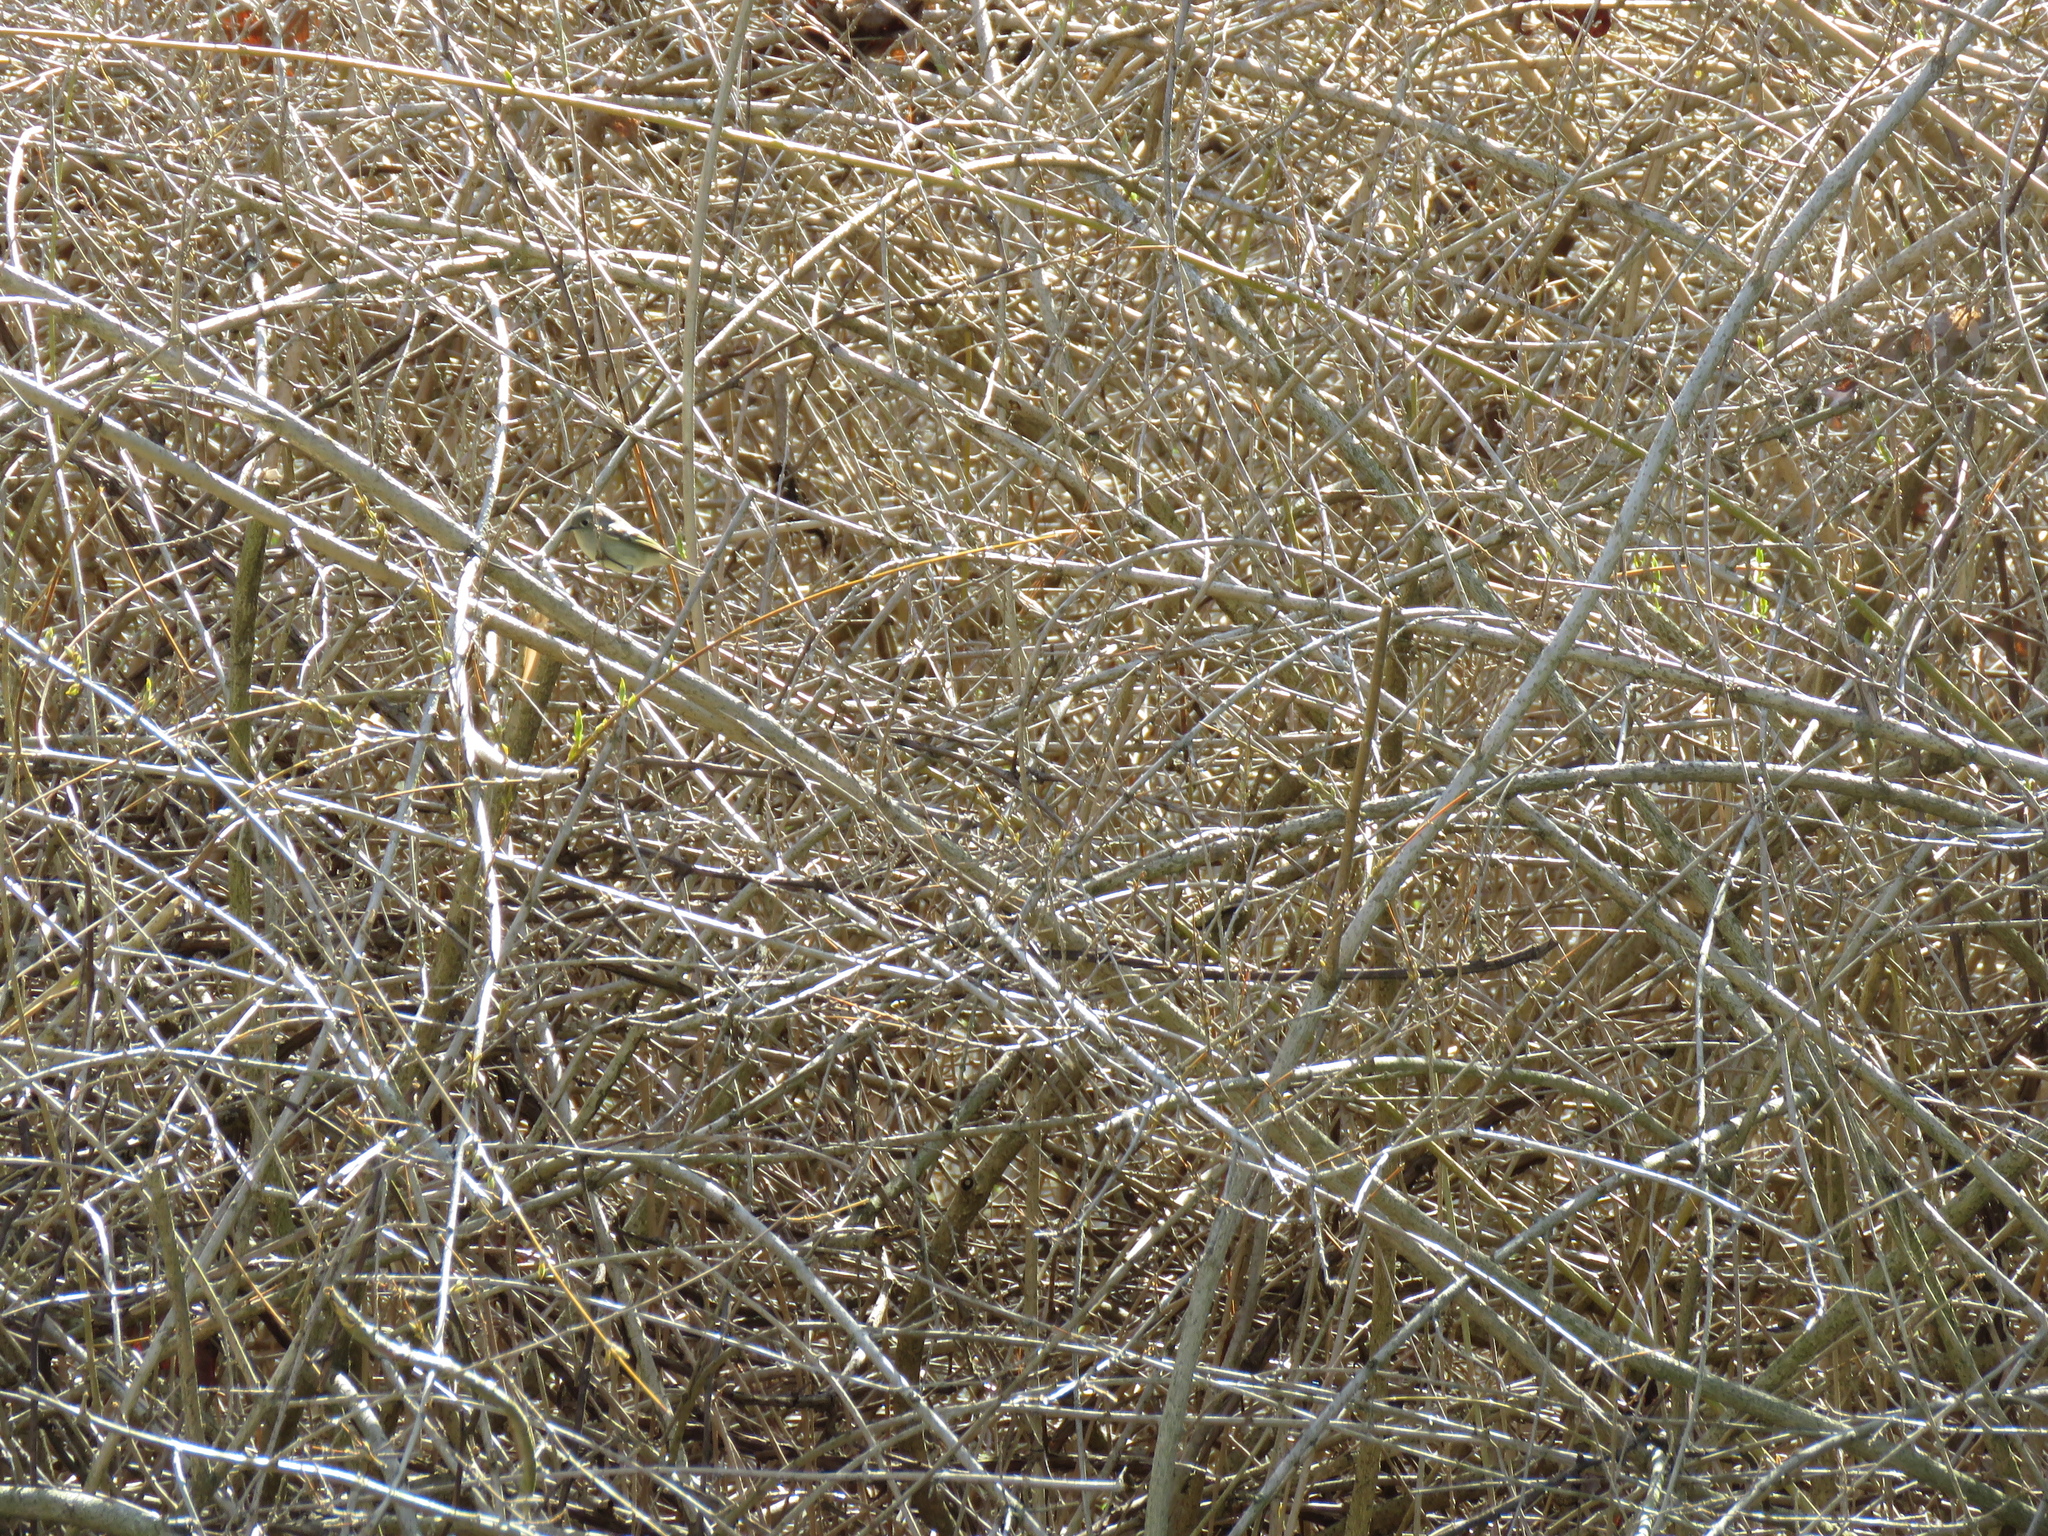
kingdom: Animalia
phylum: Chordata
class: Aves
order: Passeriformes
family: Regulidae
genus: Regulus
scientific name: Regulus calendula
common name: Ruby-crowned kinglet
